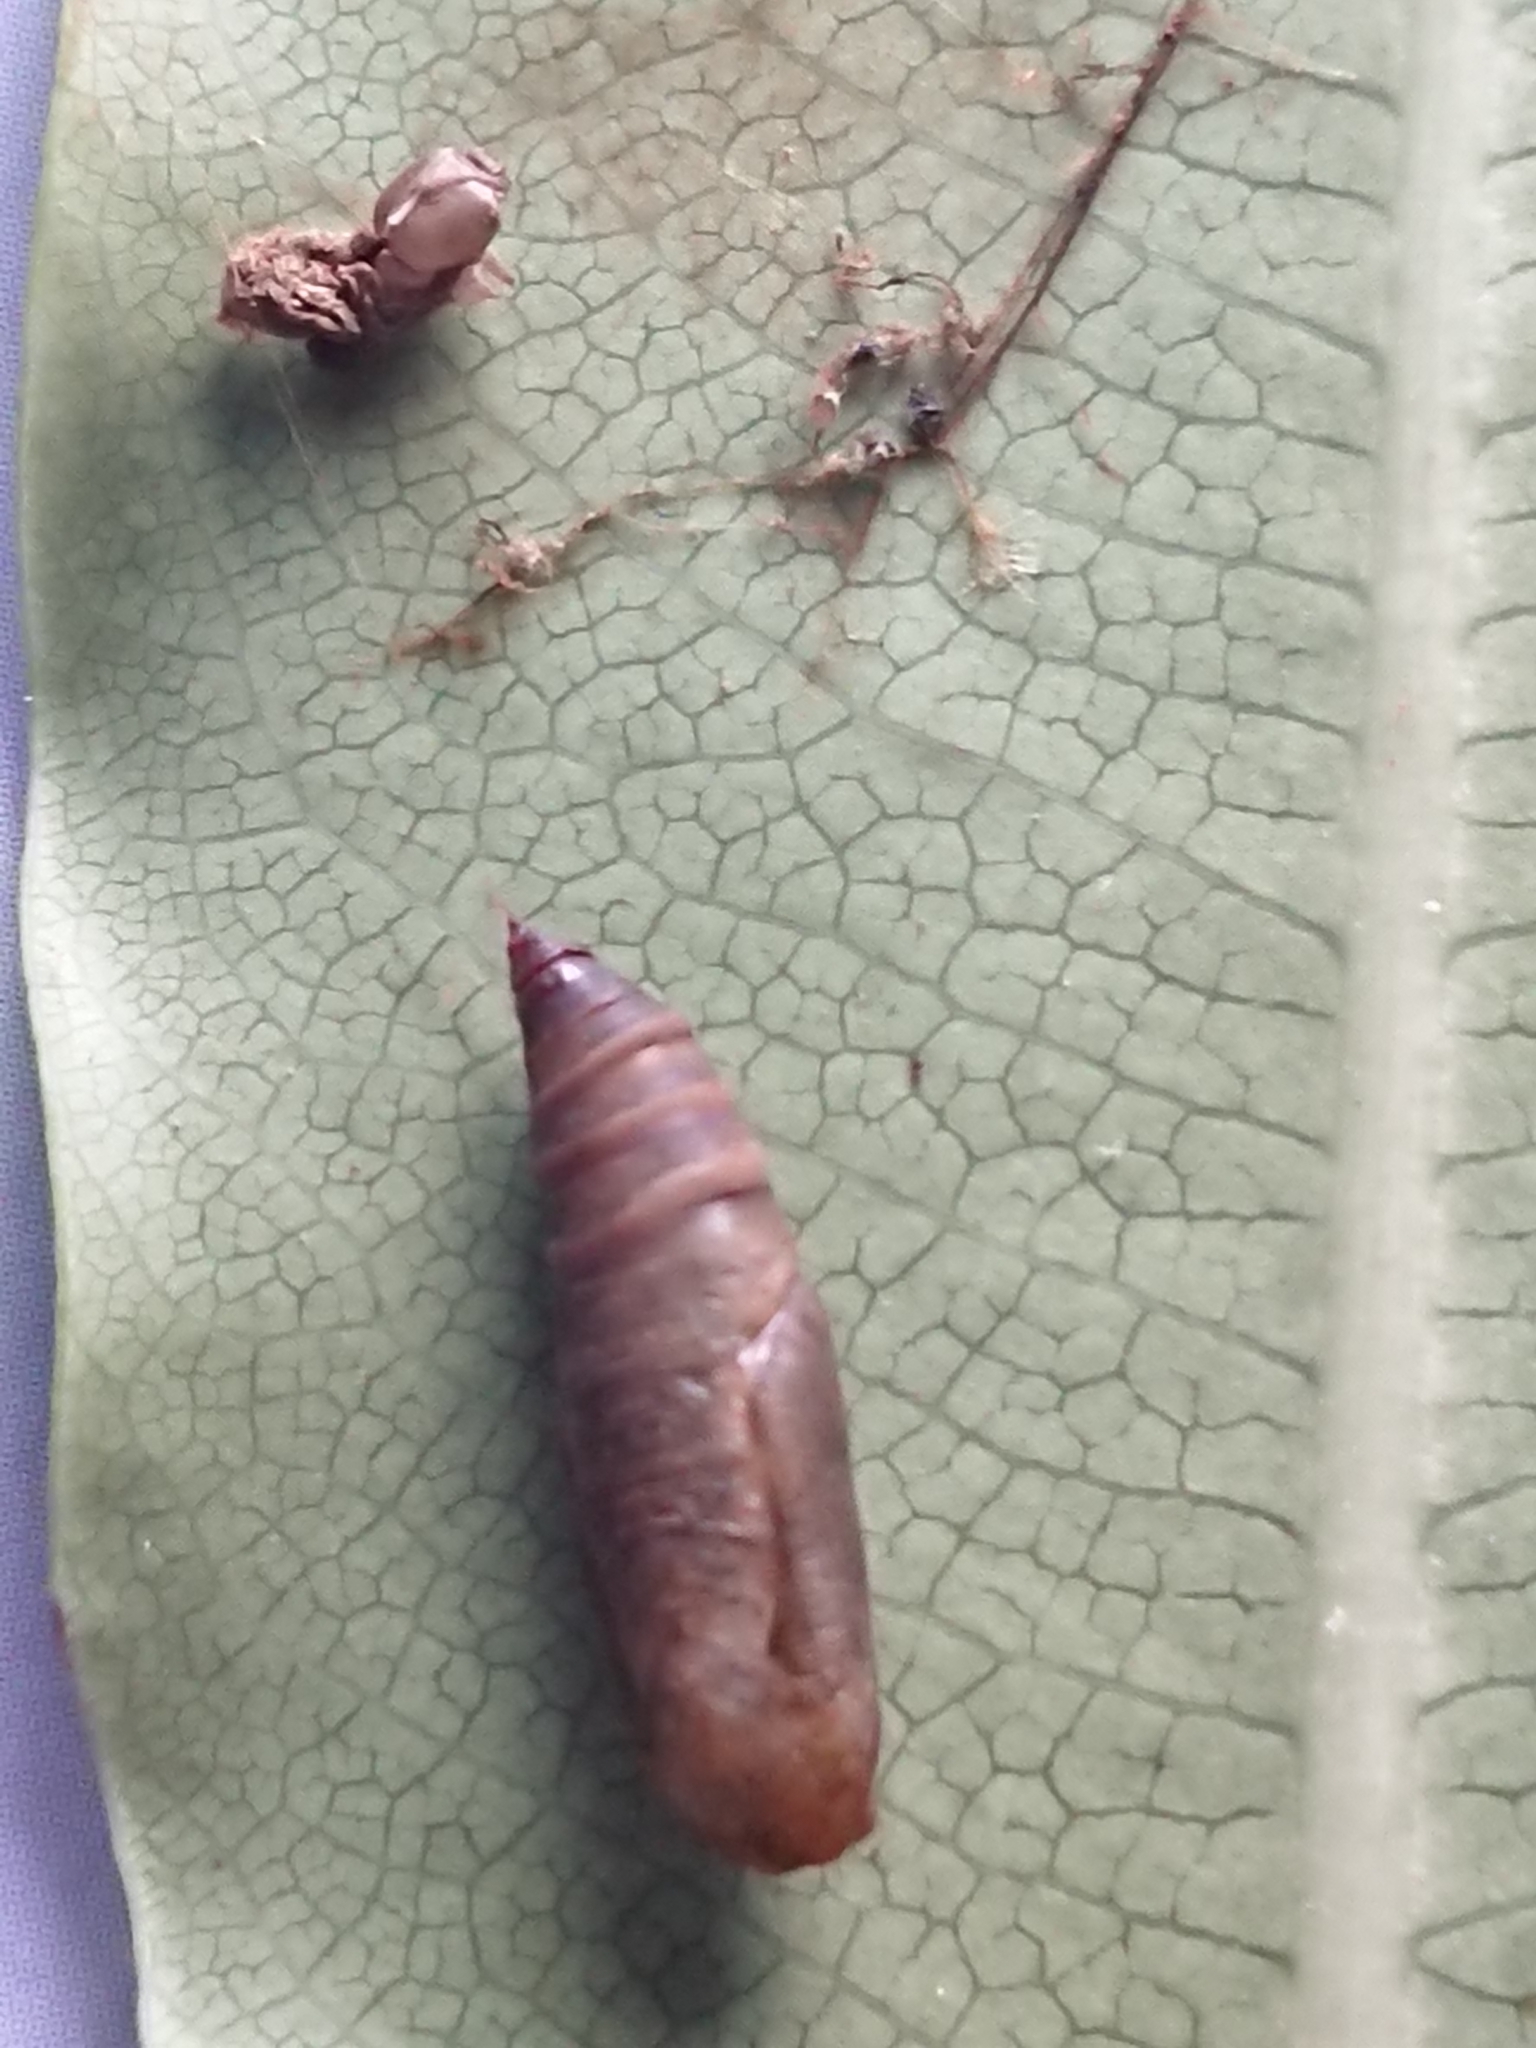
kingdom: Animalia
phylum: Arthropoda
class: Insecta
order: Lepidoptera
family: Geometridae
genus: Xyridacma
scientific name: Xyridacma ustaria
